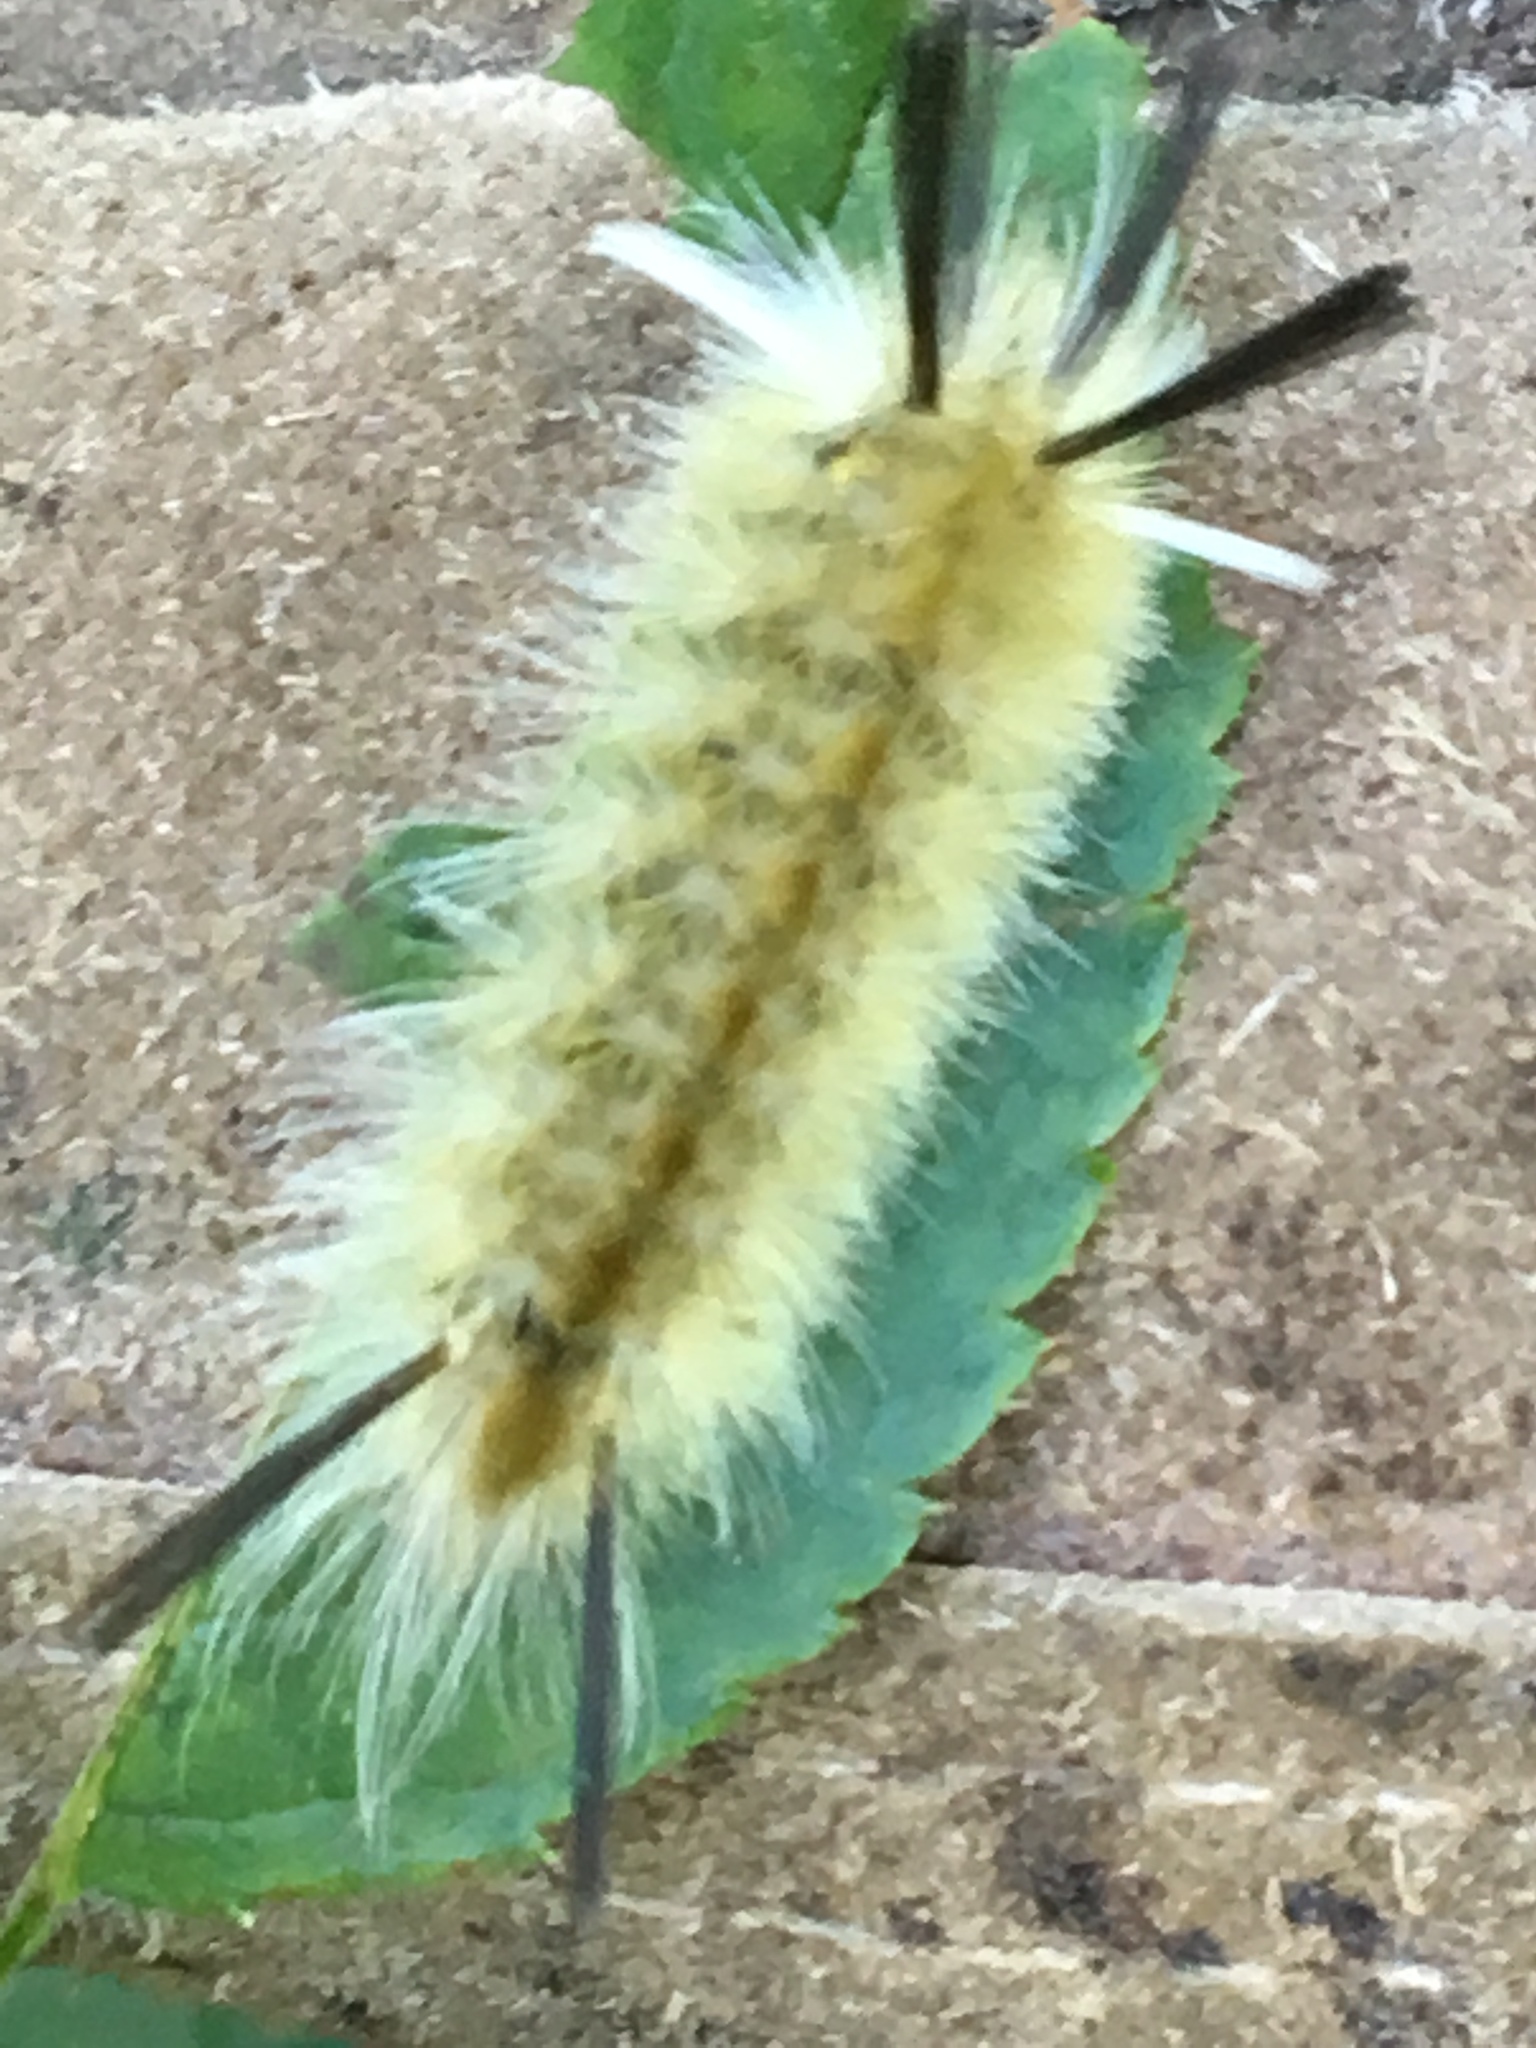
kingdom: Animalia
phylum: Arthropoda
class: Insecta
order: Lepidoptera
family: Erebidae
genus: Halysidota
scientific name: Halysidota tessellaris
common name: Banded tussock moth
